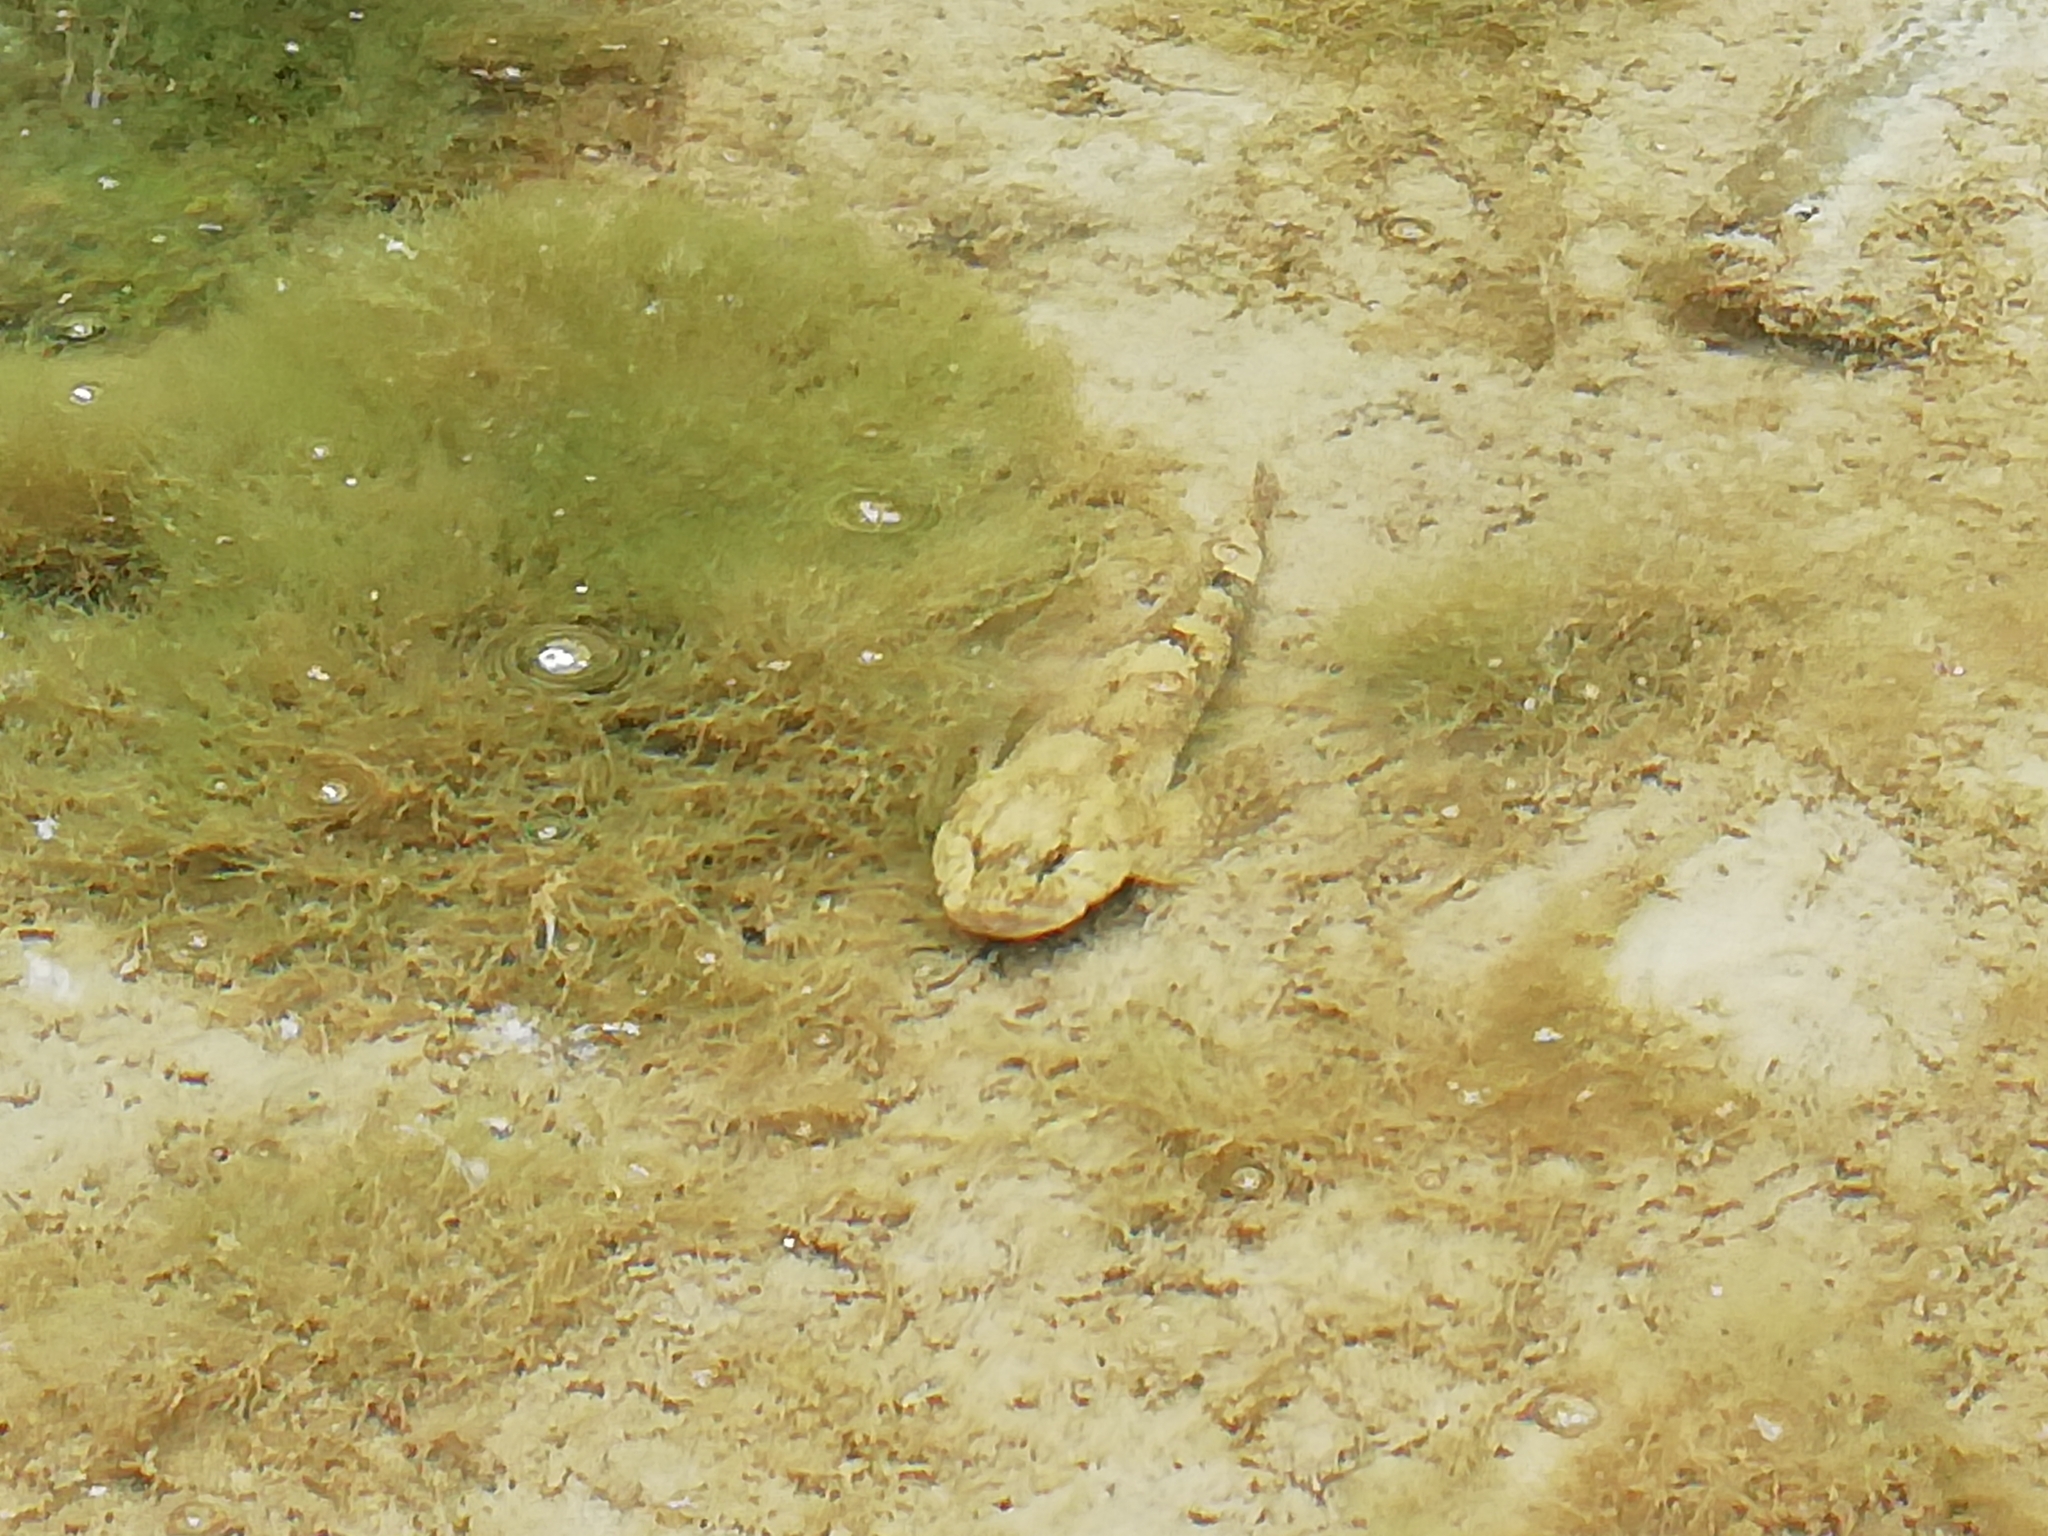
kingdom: Animalia
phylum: Chordata
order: Scorpaeniformes
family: Cottidae
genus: Cottus
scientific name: Cottus gobio
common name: Bullhead
